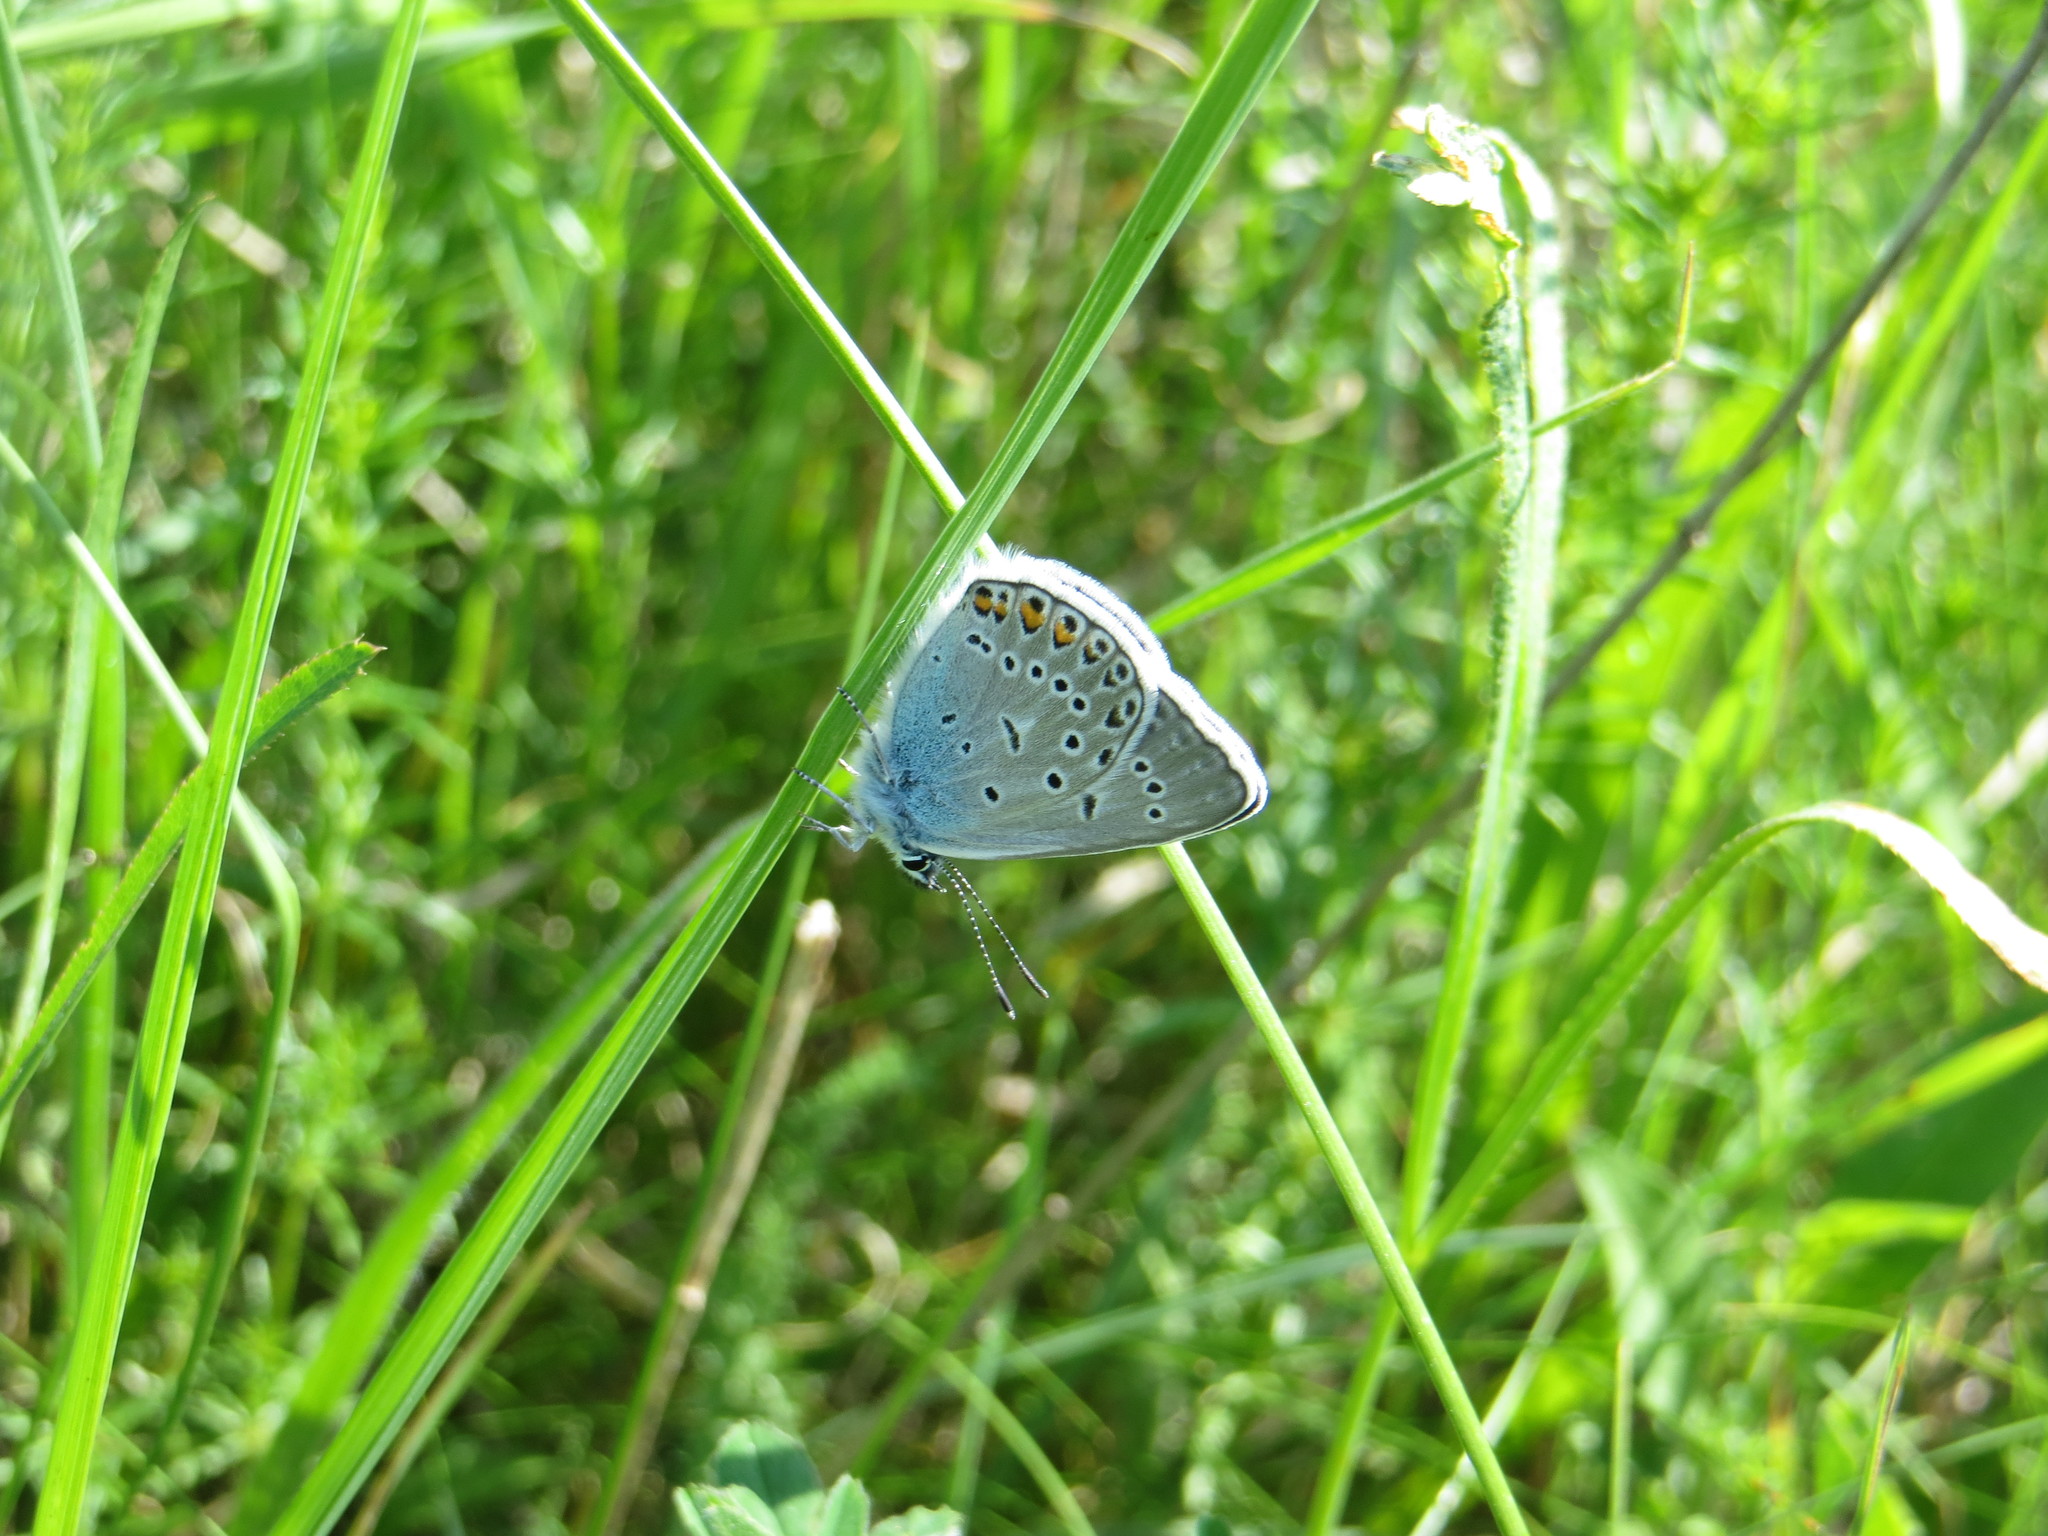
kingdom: Animalia
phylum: Arthropoda
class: Insecta
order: Lepidoptera
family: Lycaenidae
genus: Plebejus
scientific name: Plebejus amanda
